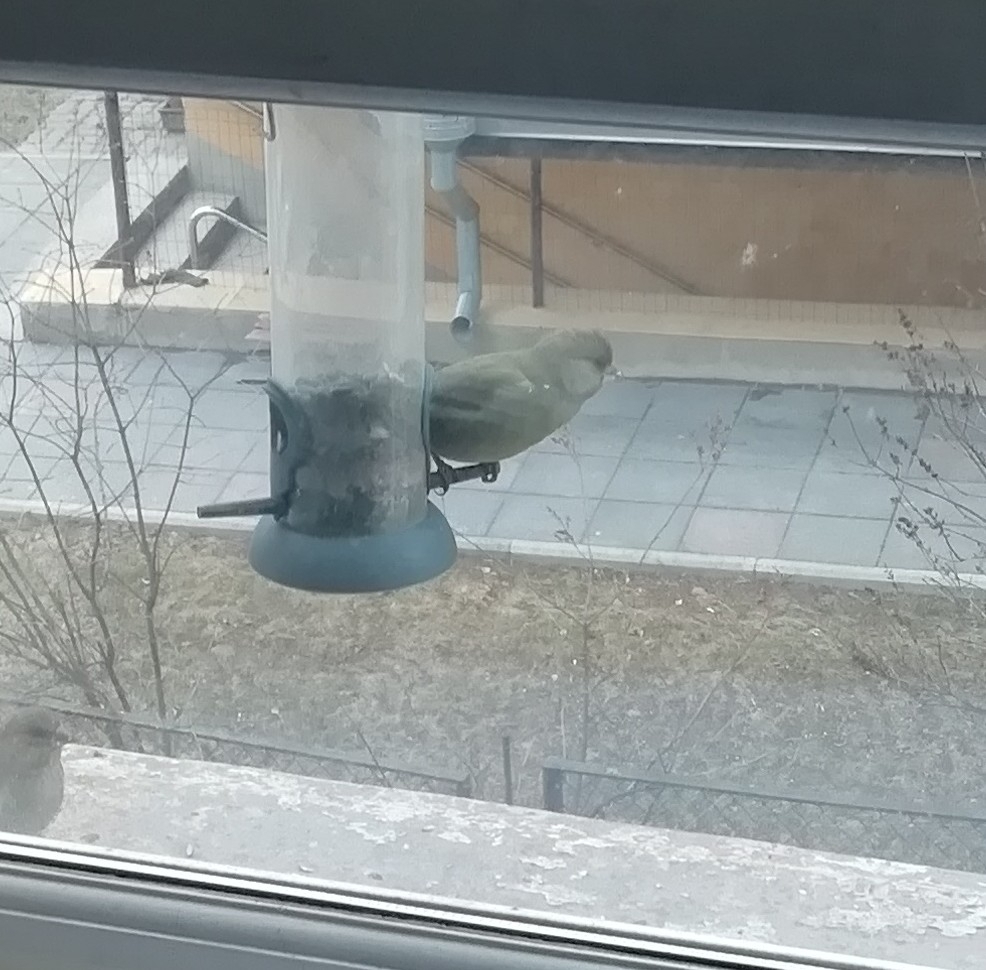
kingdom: Plantae
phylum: Tracheophyta
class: Liliopsida
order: Poales
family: Poaceae
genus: Chloris
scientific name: Chloris chloris
